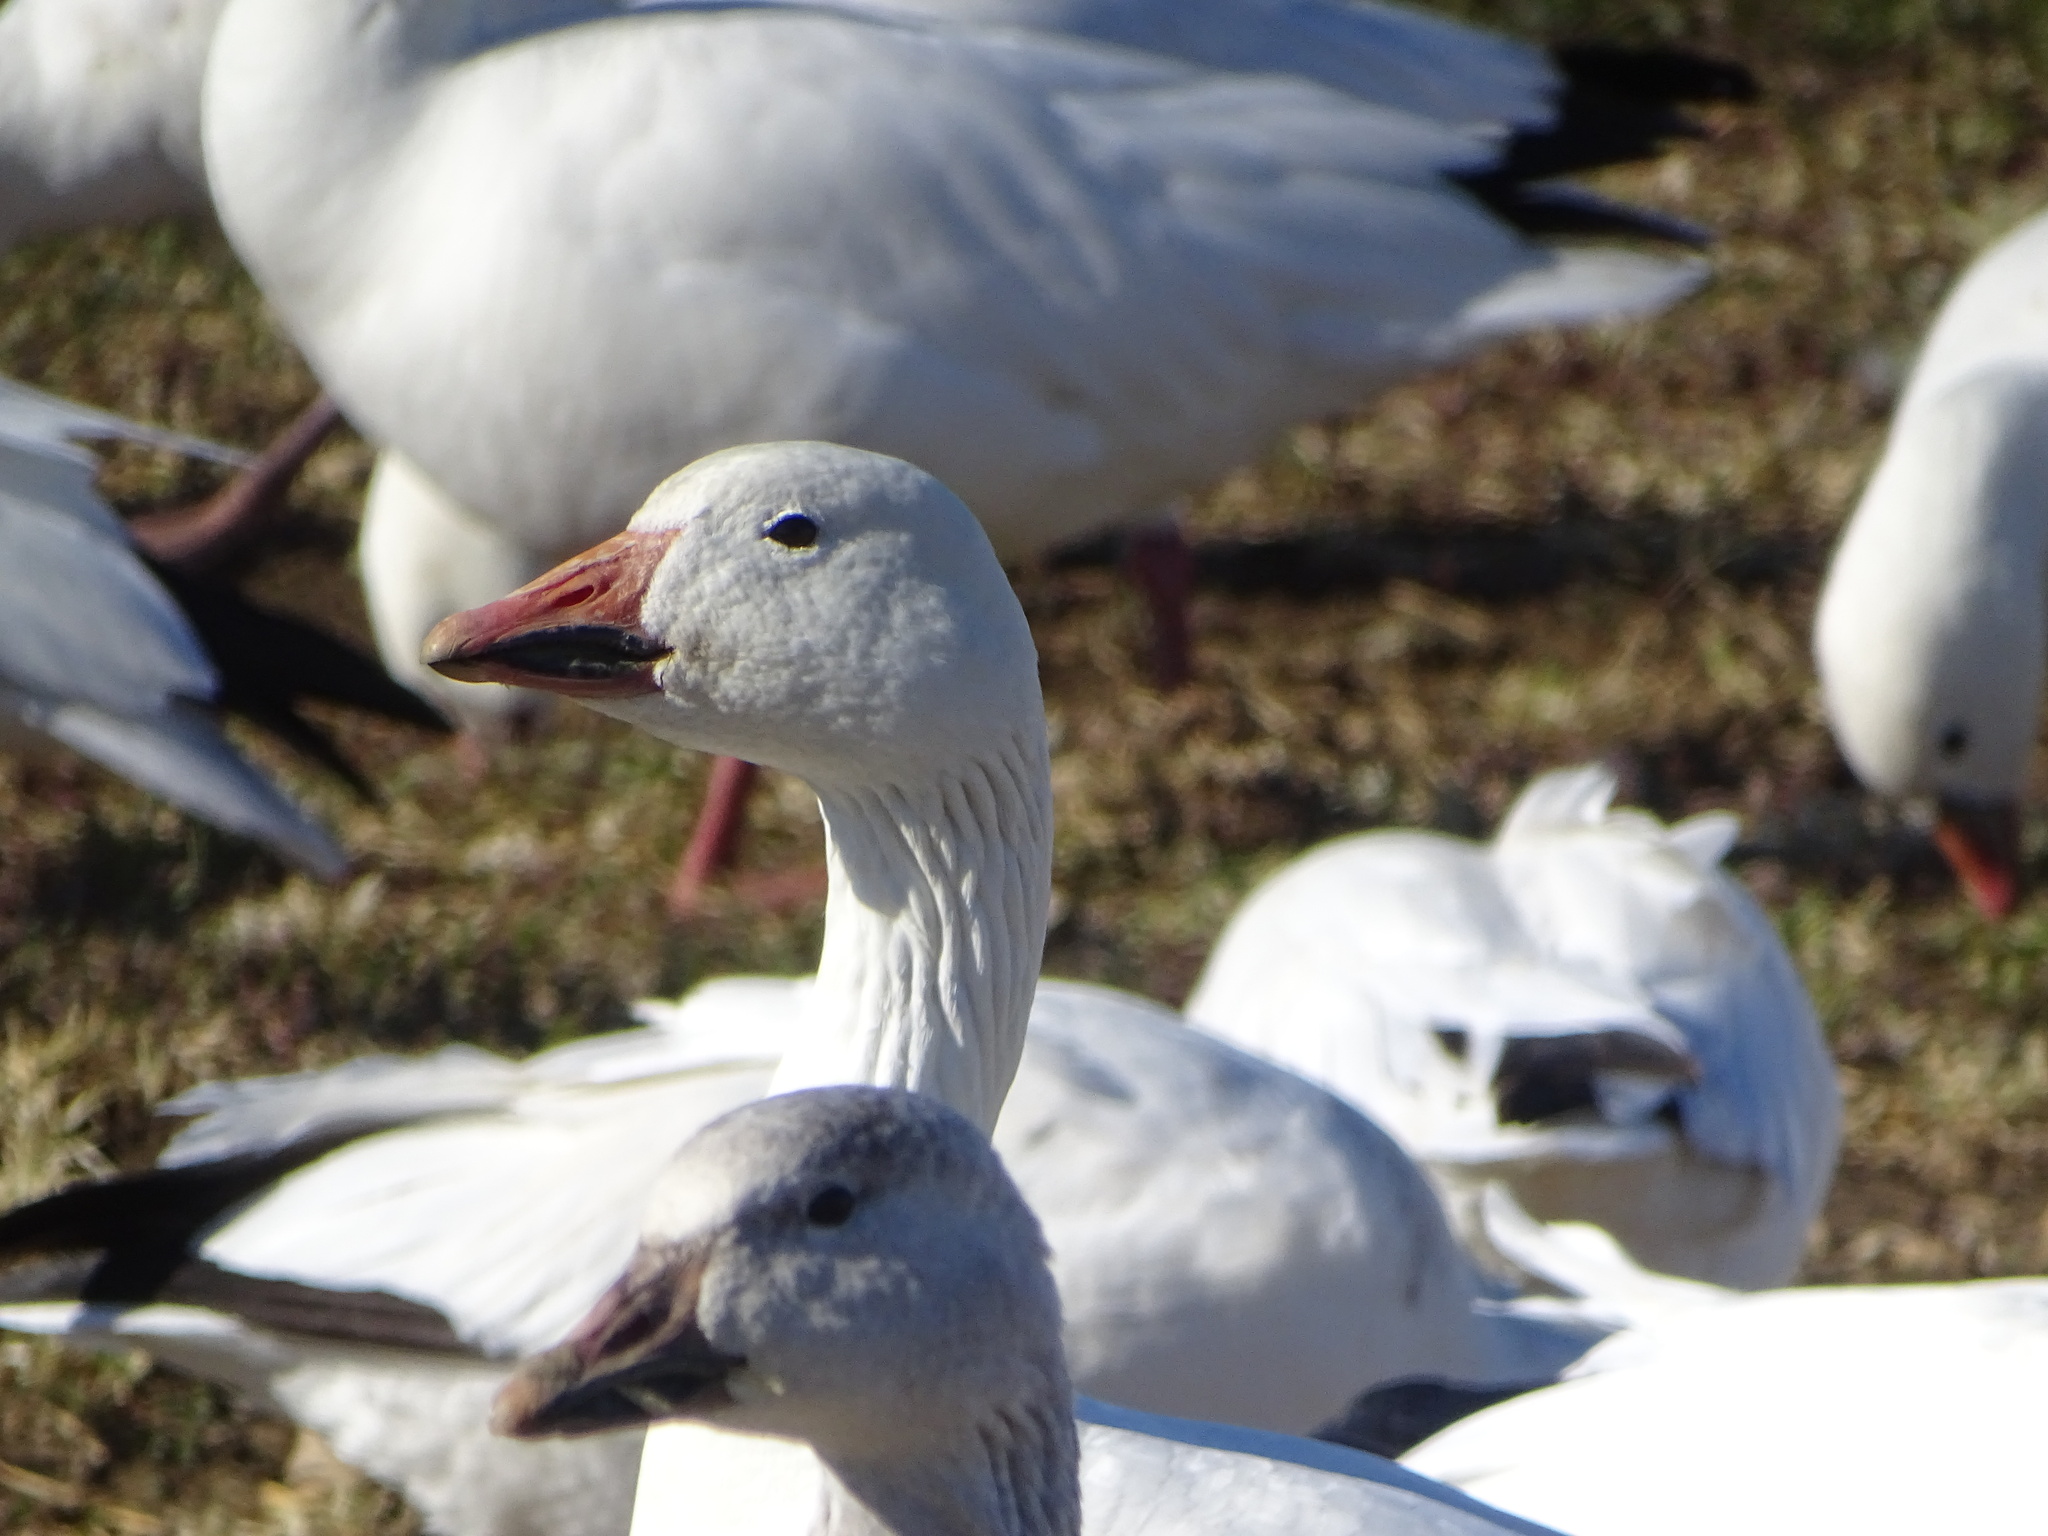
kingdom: Animalia
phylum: Chordata
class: Aves
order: Anseriformes
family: Anatidae
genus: Anser
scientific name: Anser caerulescens
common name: Snow goose
